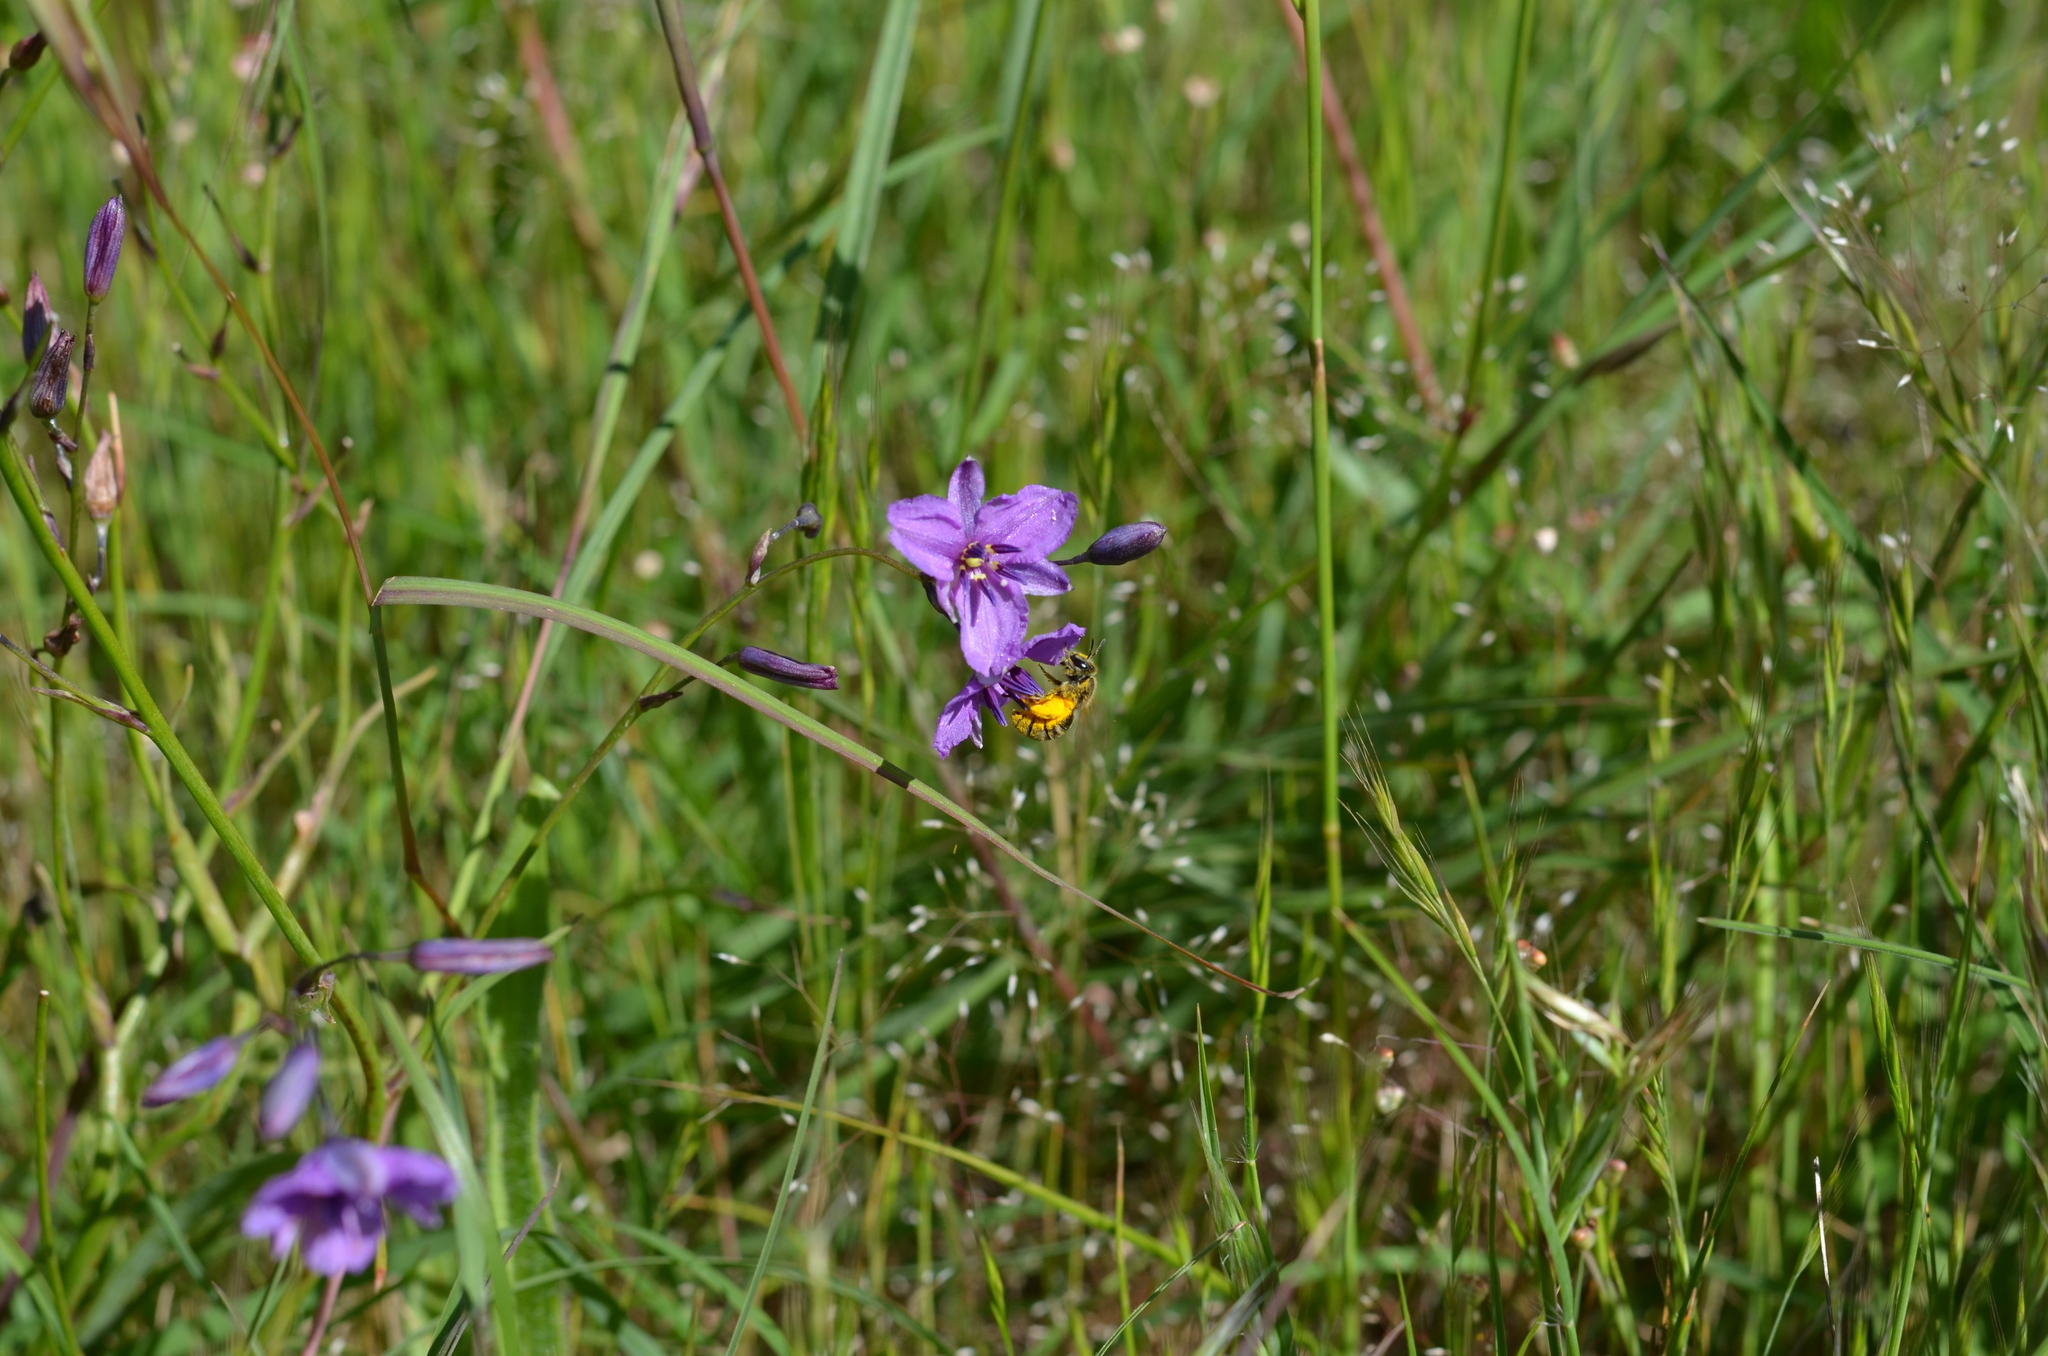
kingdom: Plantae
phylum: Tracheophyta
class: Liliopsida
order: Asparagales
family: Asparagaceae
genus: Arthropodium
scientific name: Arthropodium strictum
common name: Chocolate-lily
